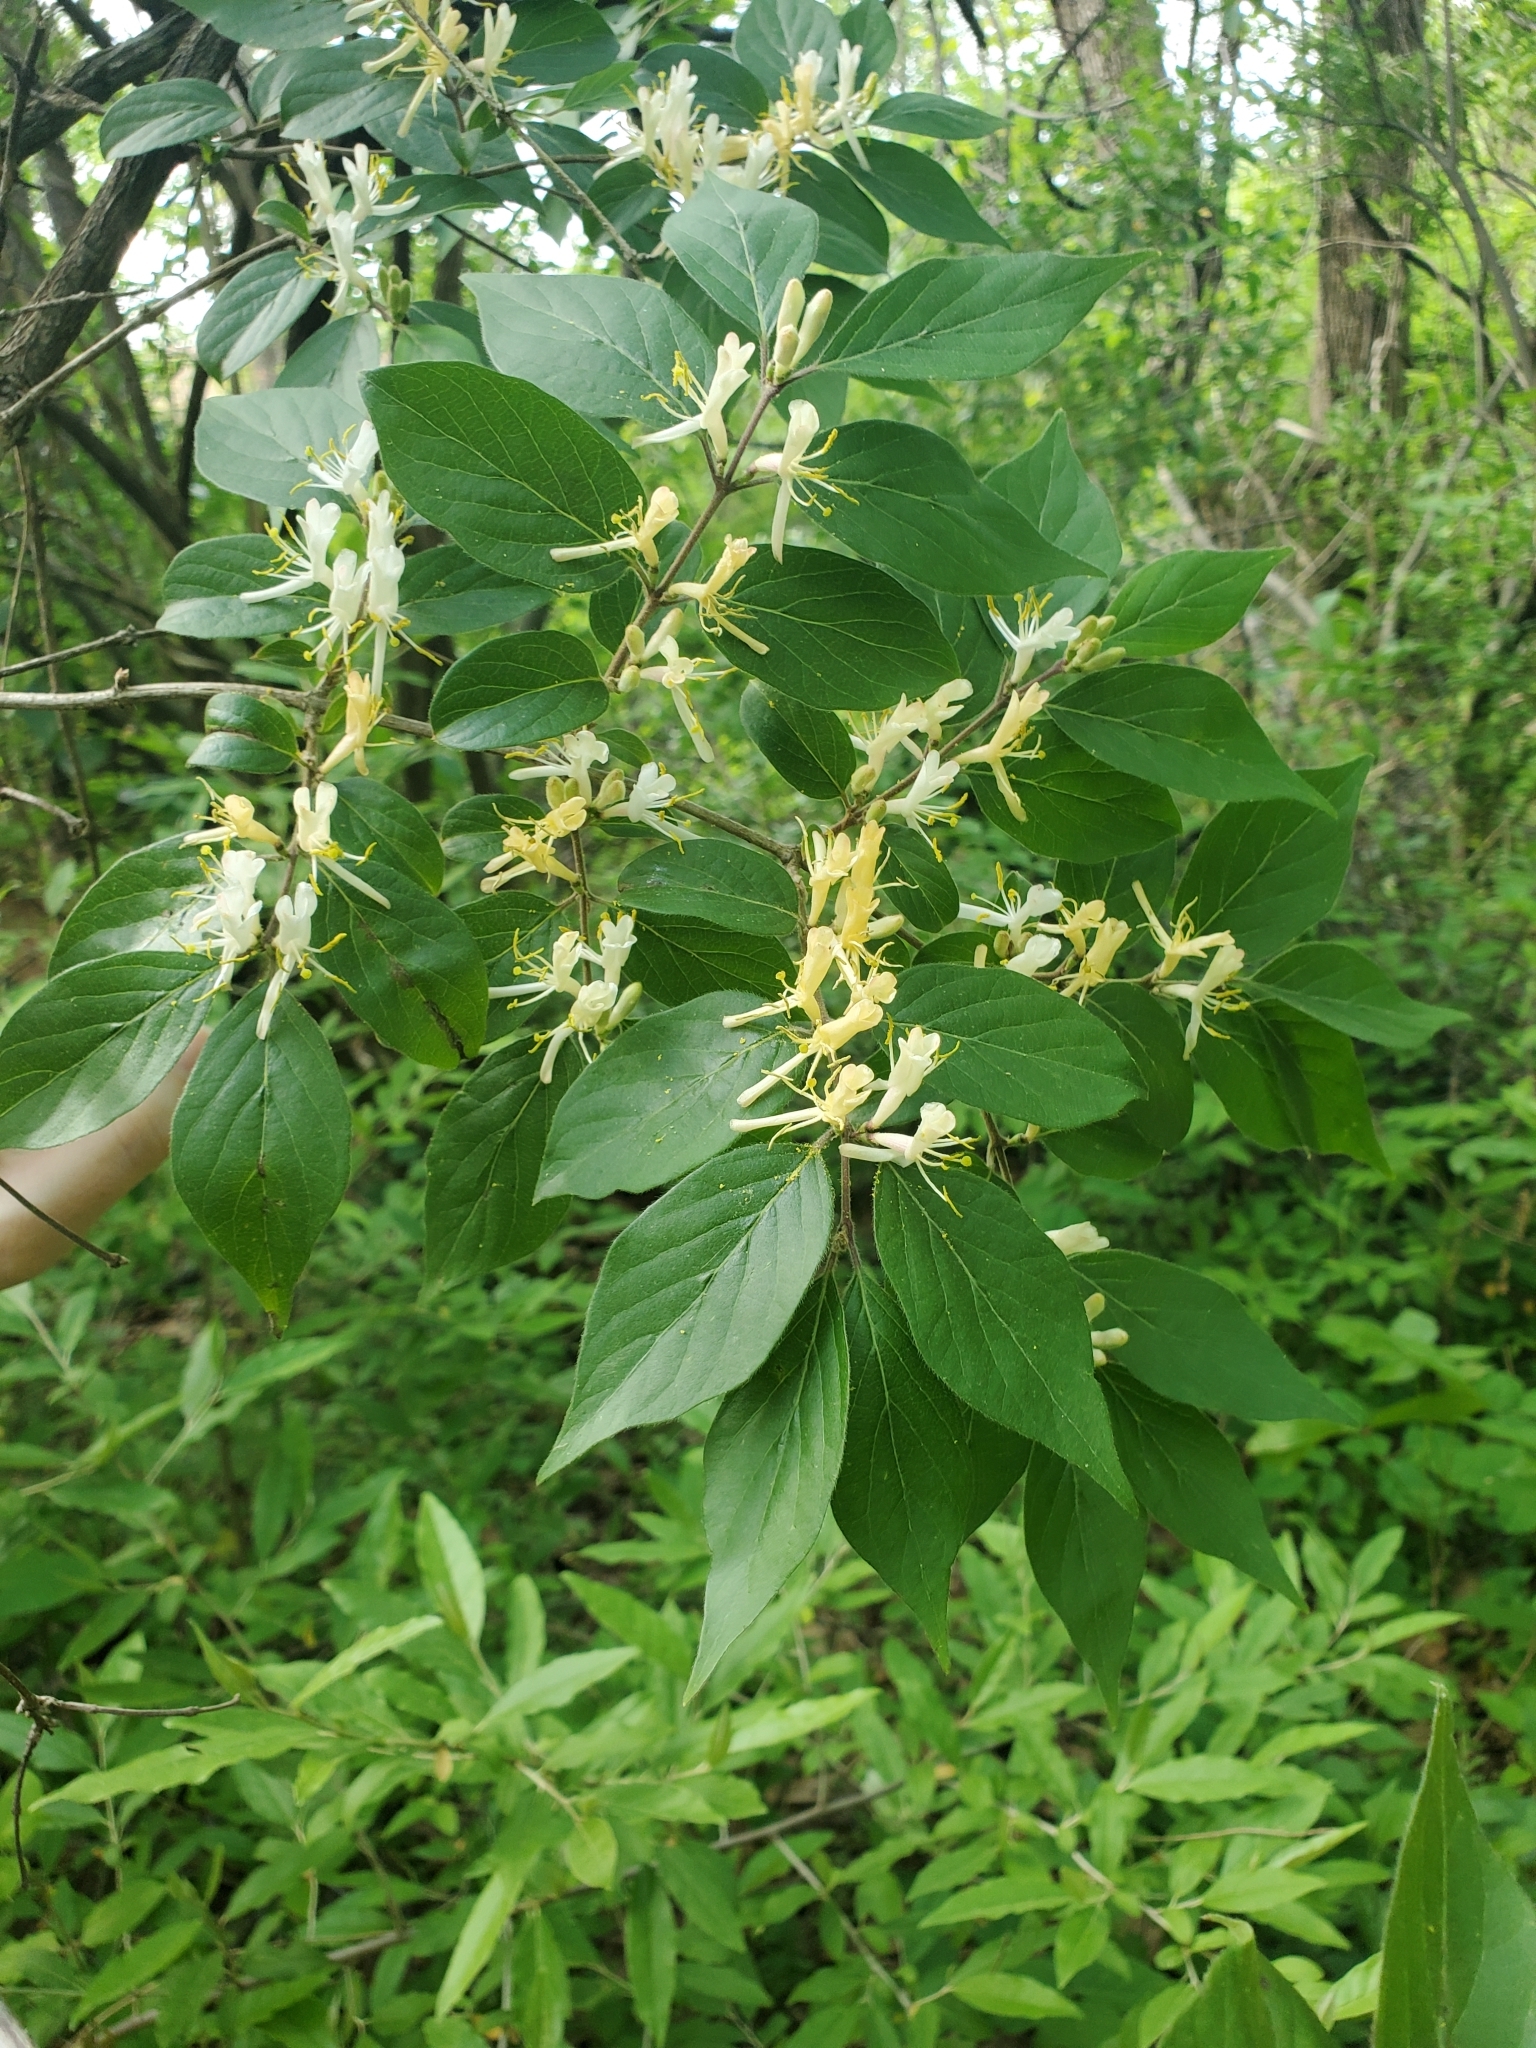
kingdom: Plantae
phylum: Tracheophyta
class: Magnoliopsida
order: Dipsacales
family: Caprifoliaceae
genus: Lonicera
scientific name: Lonicera maackii
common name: Amur honeysuckle
